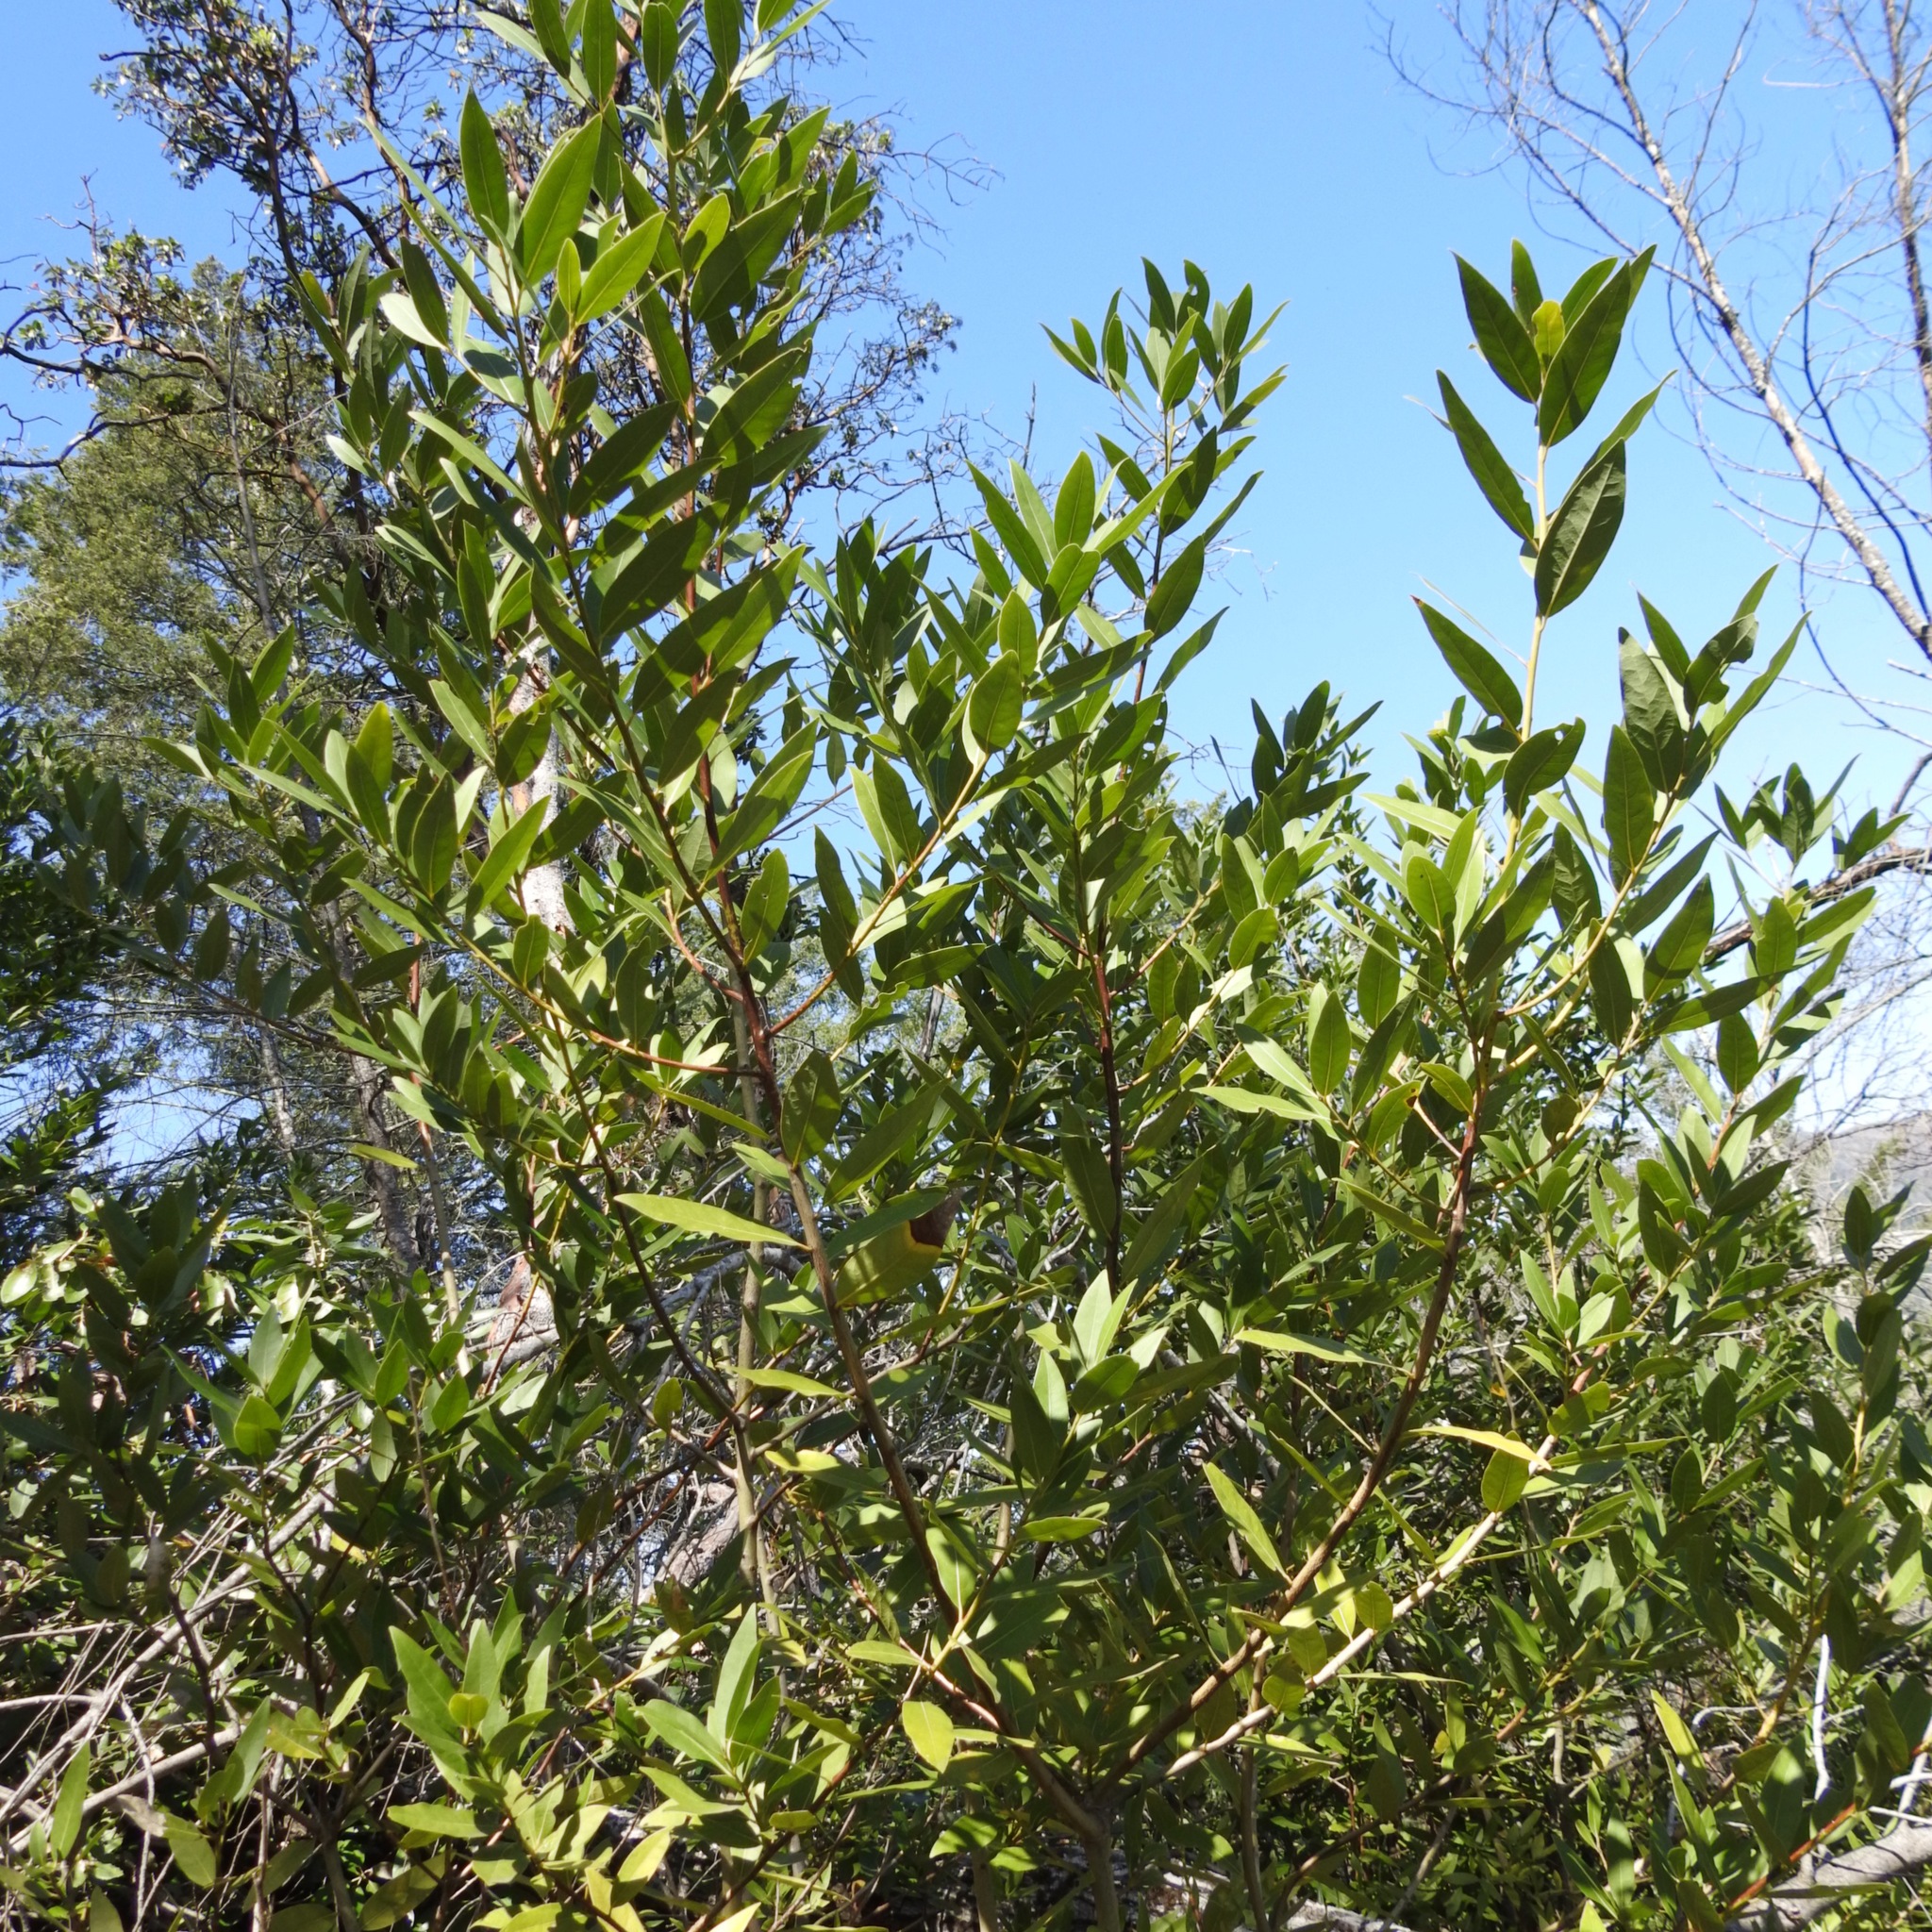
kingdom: Plantae
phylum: Tracheophyta
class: Magnoliopsida
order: Laurales
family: Lauraceae
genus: Umbellularia
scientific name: Umbellularia californica
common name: California bay
